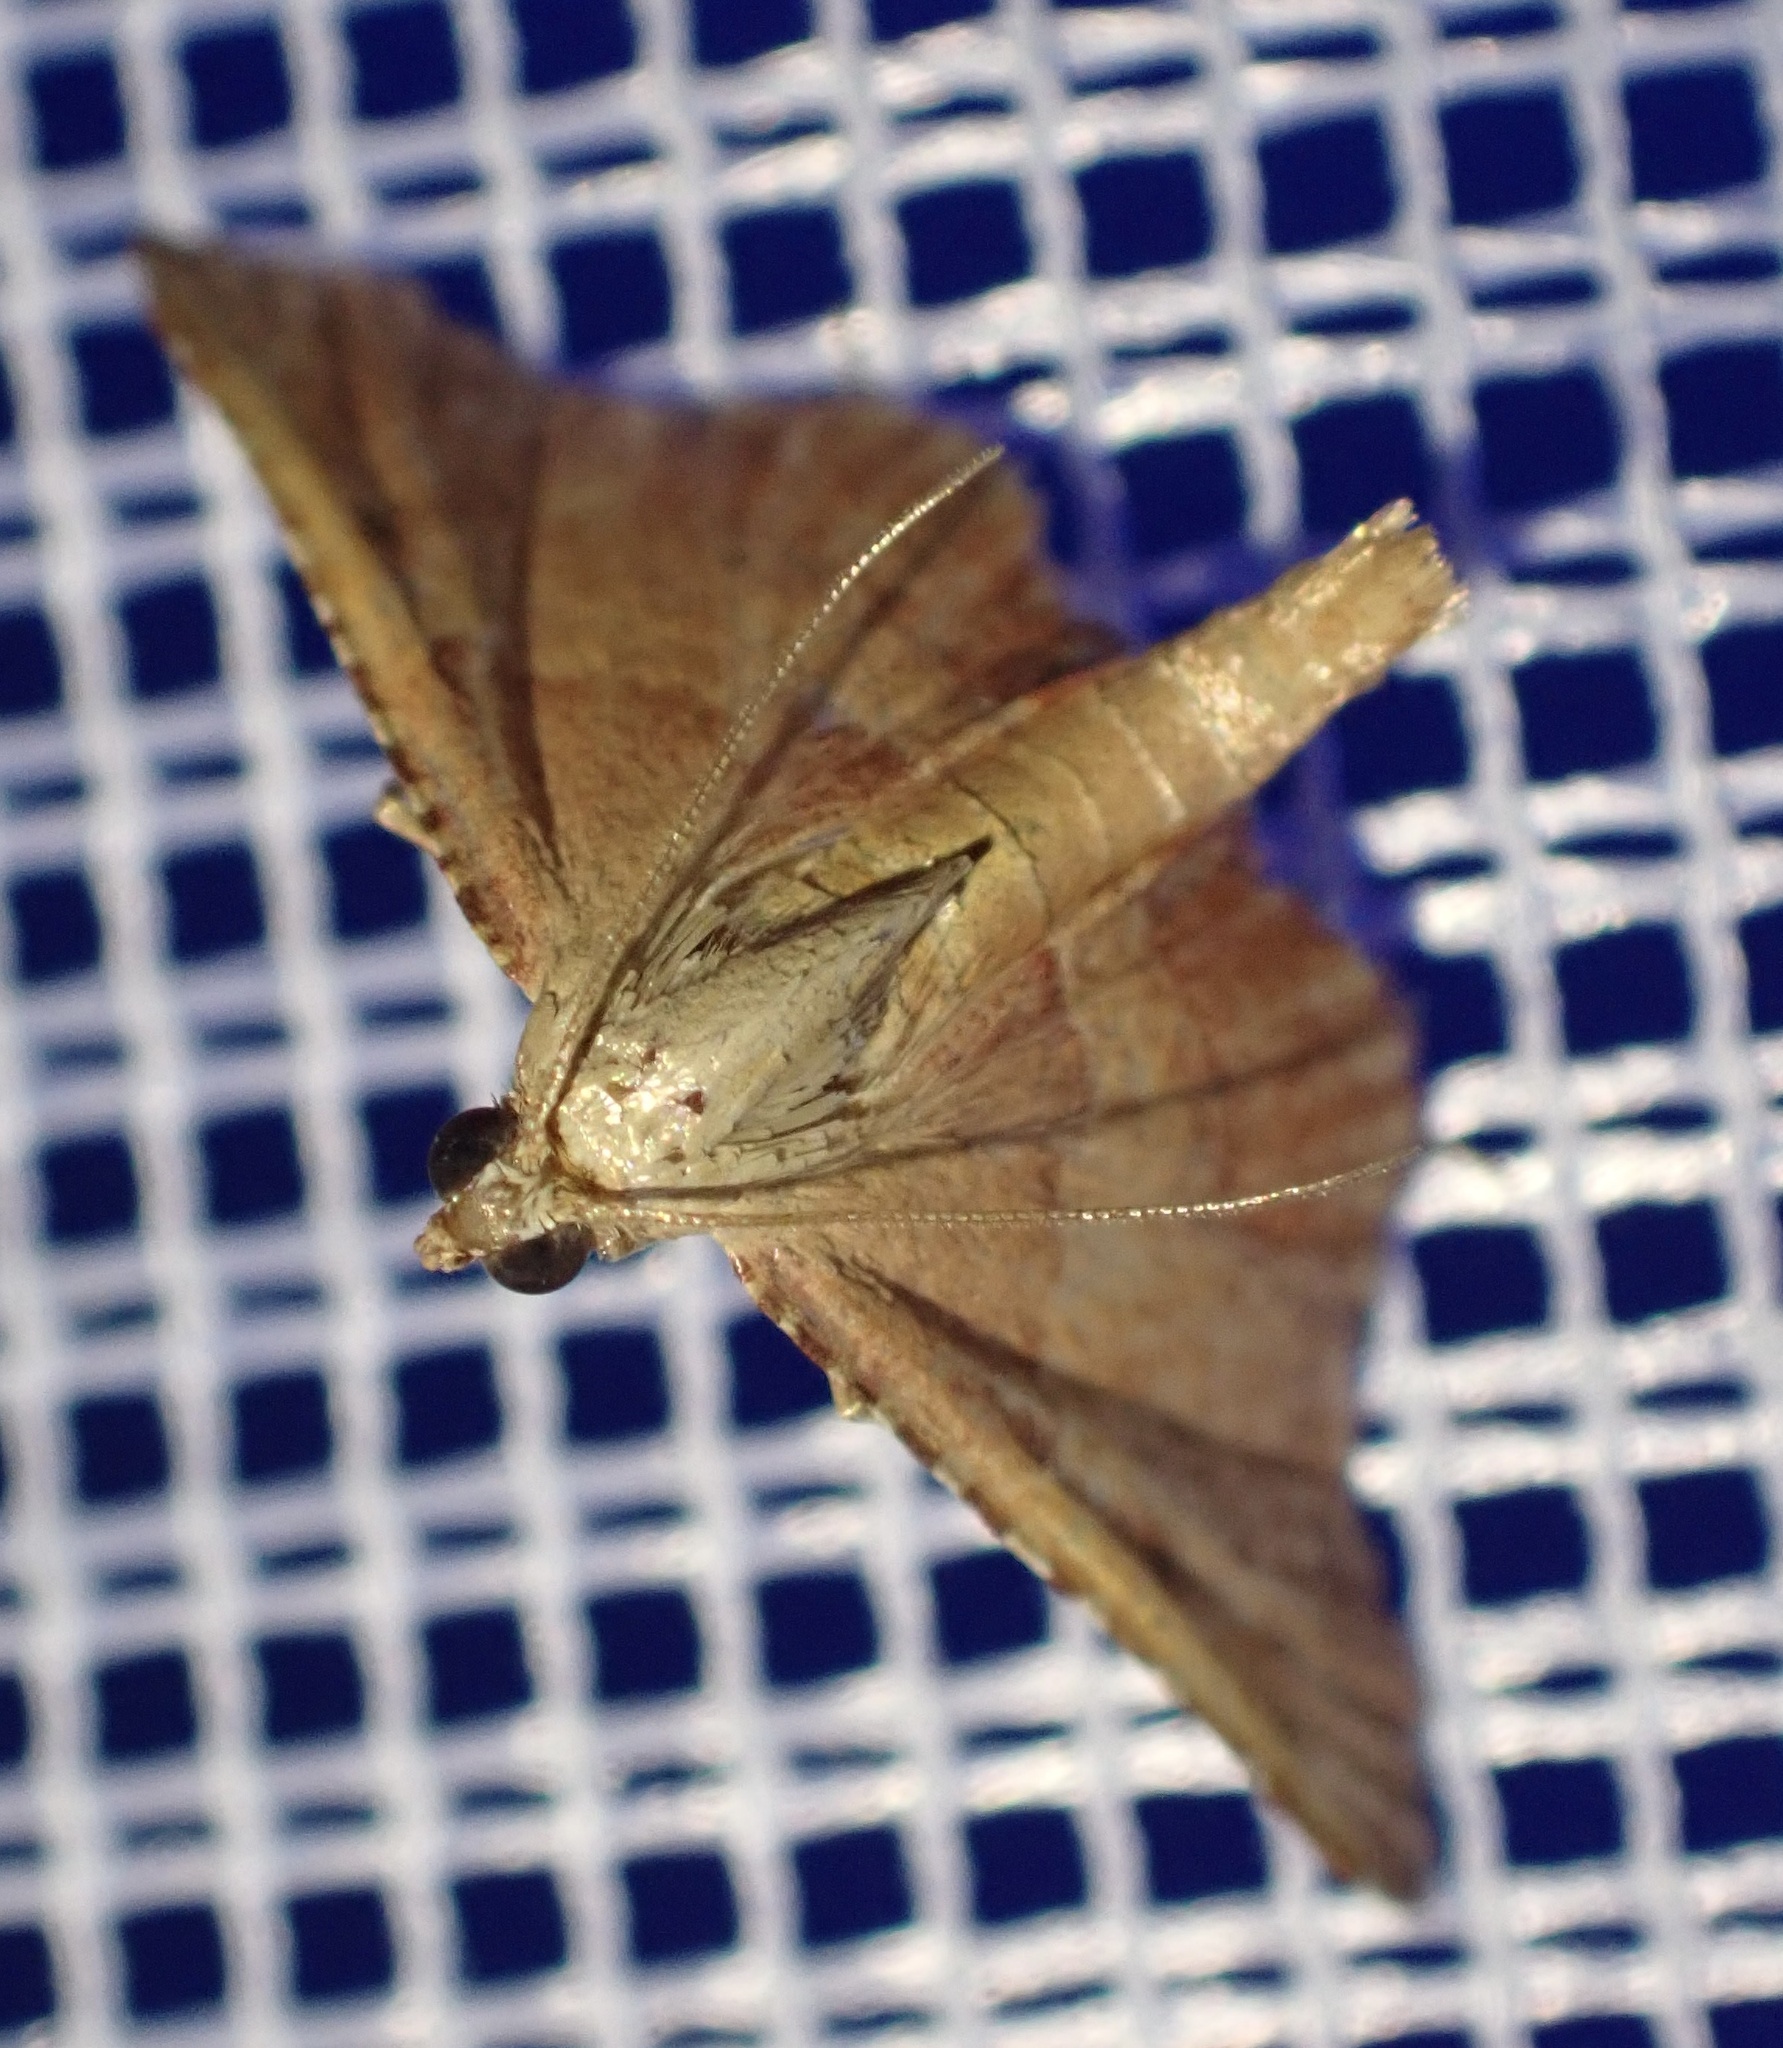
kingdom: Animalia
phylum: Arthropoda
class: Insecta
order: Lepidoptera
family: Pyralidae
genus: Endotricha
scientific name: Endotricha flammealis
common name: Rosy tabby
